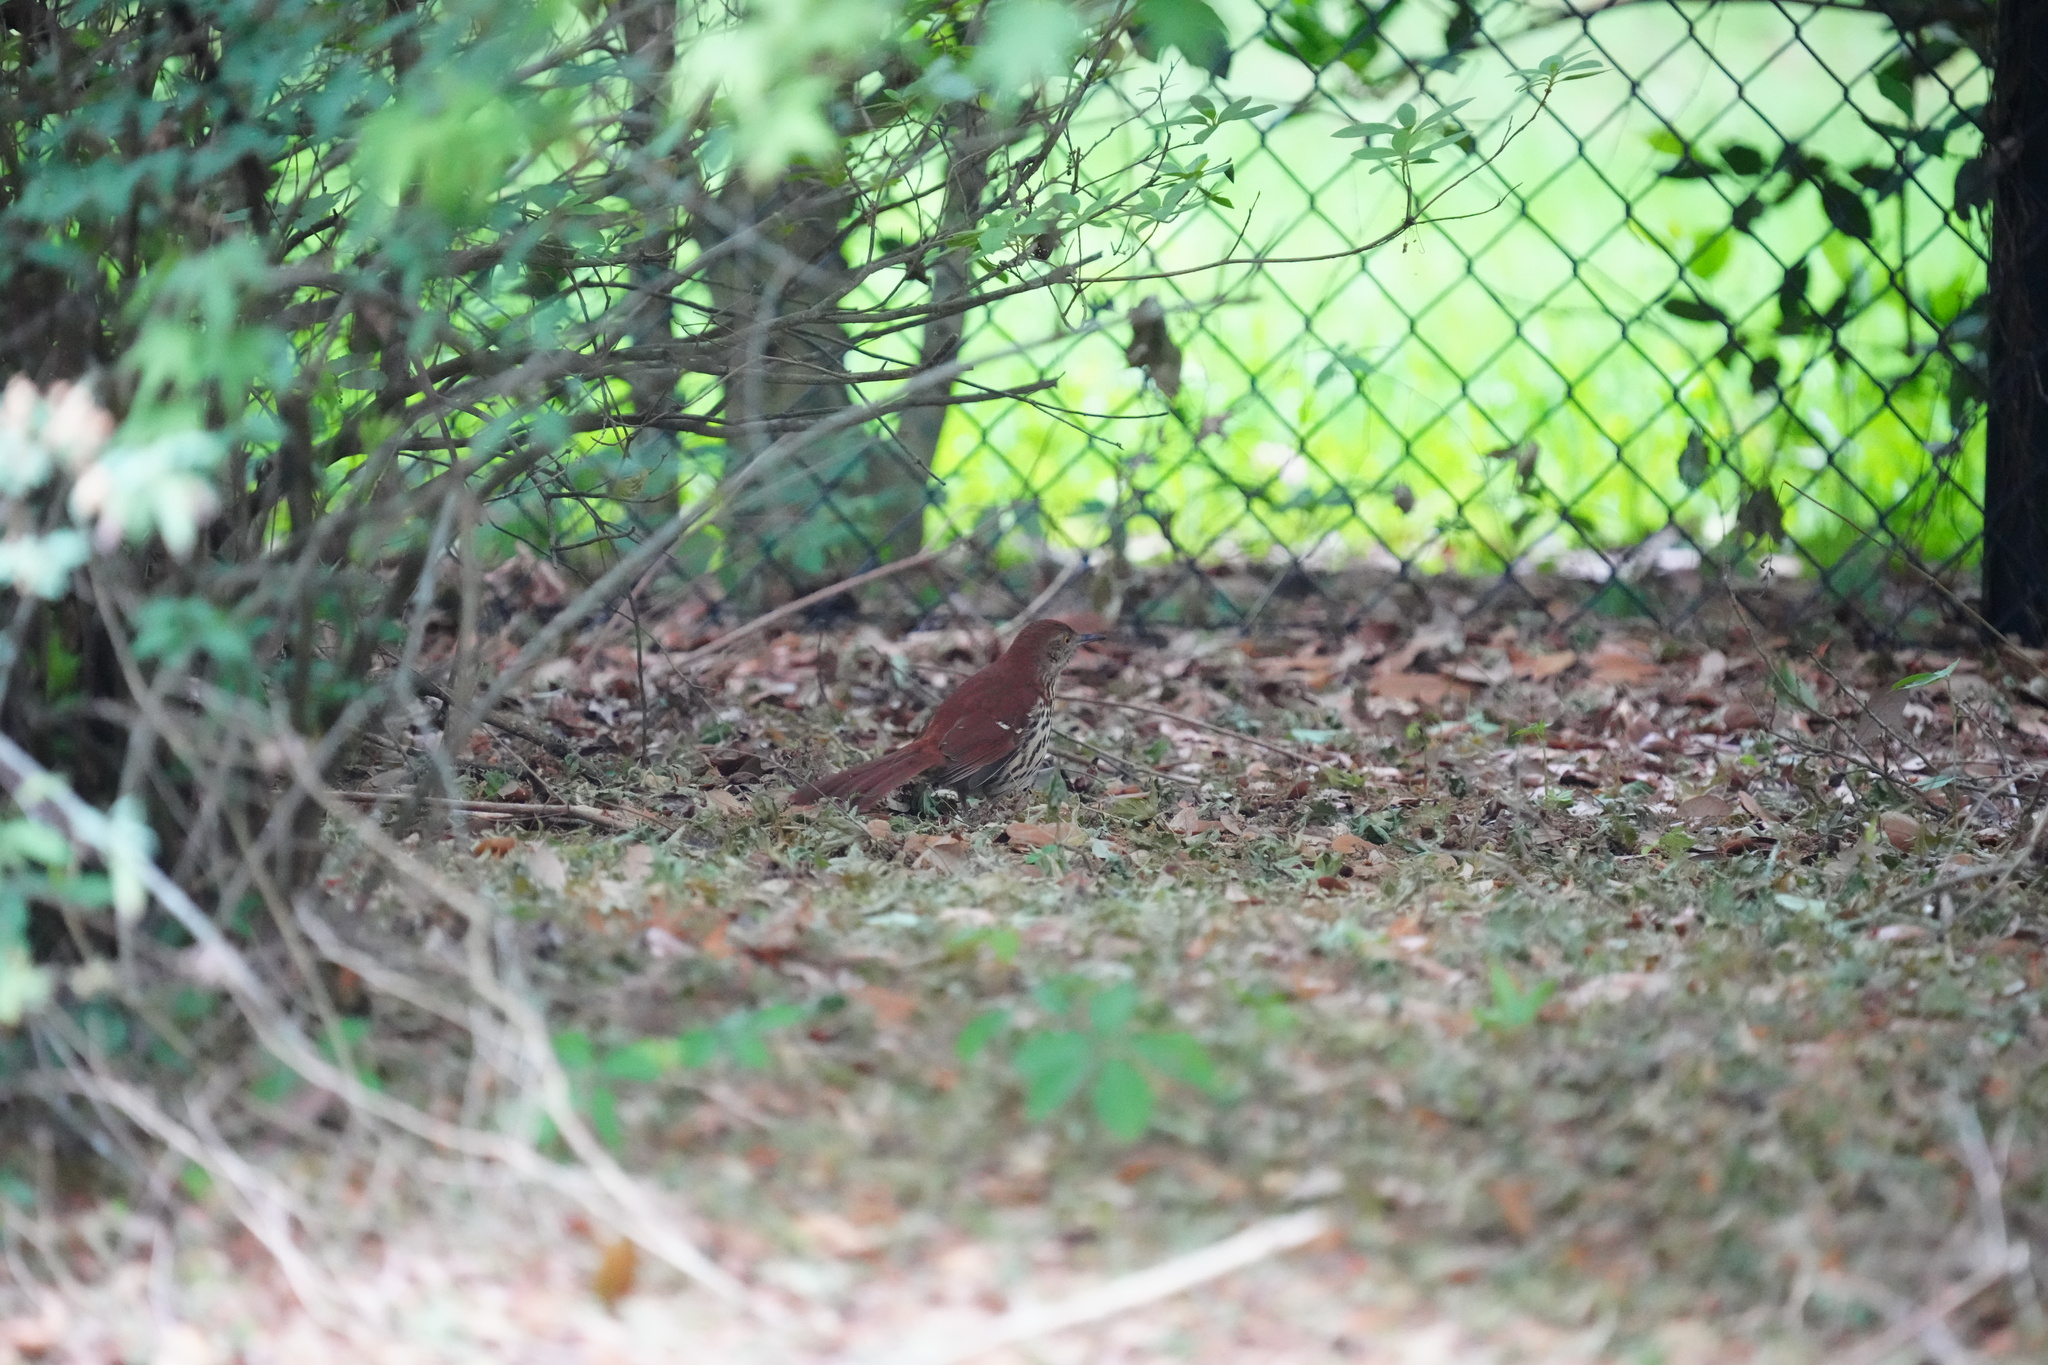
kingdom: Animalia
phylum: Chordata
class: Aves
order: Passeriformes
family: Mimidae
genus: Toxostoma
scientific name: Toxostoma rufum
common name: Brown thrasher
